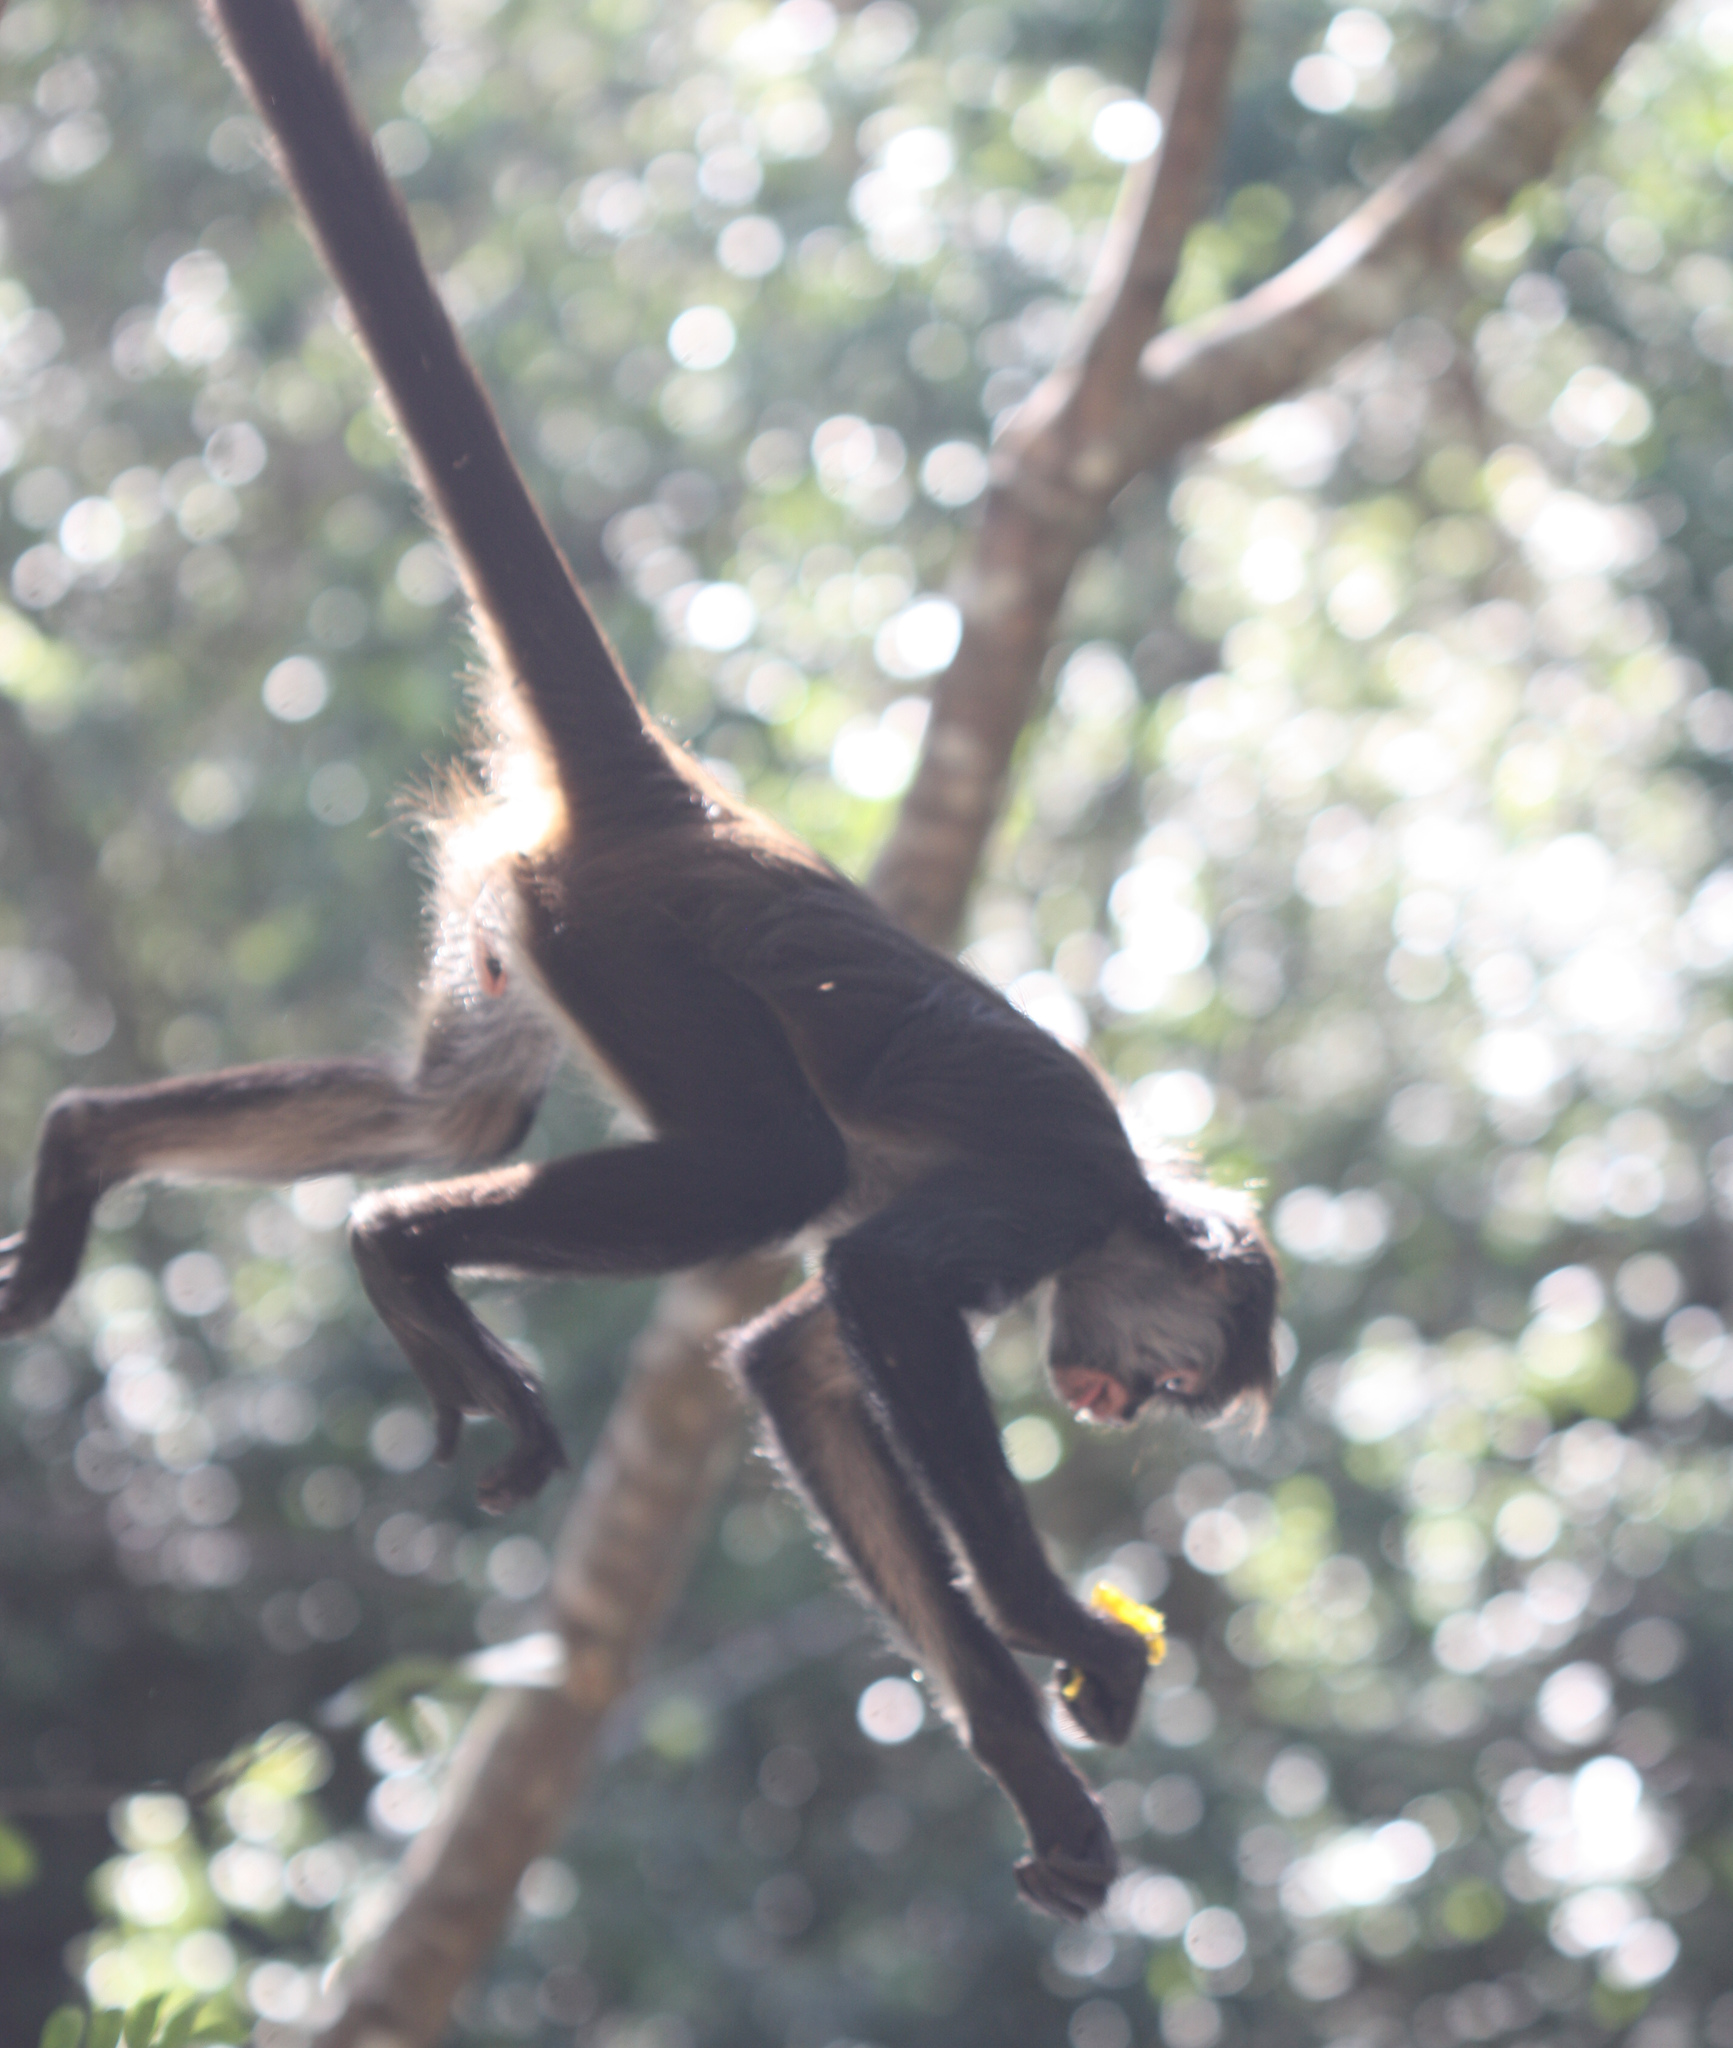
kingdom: Animalia
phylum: Chordata
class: Mammalia
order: Primates
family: Atelidae
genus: Ateles
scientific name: Ateles geoffroyi
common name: Black-handed spider monkey
